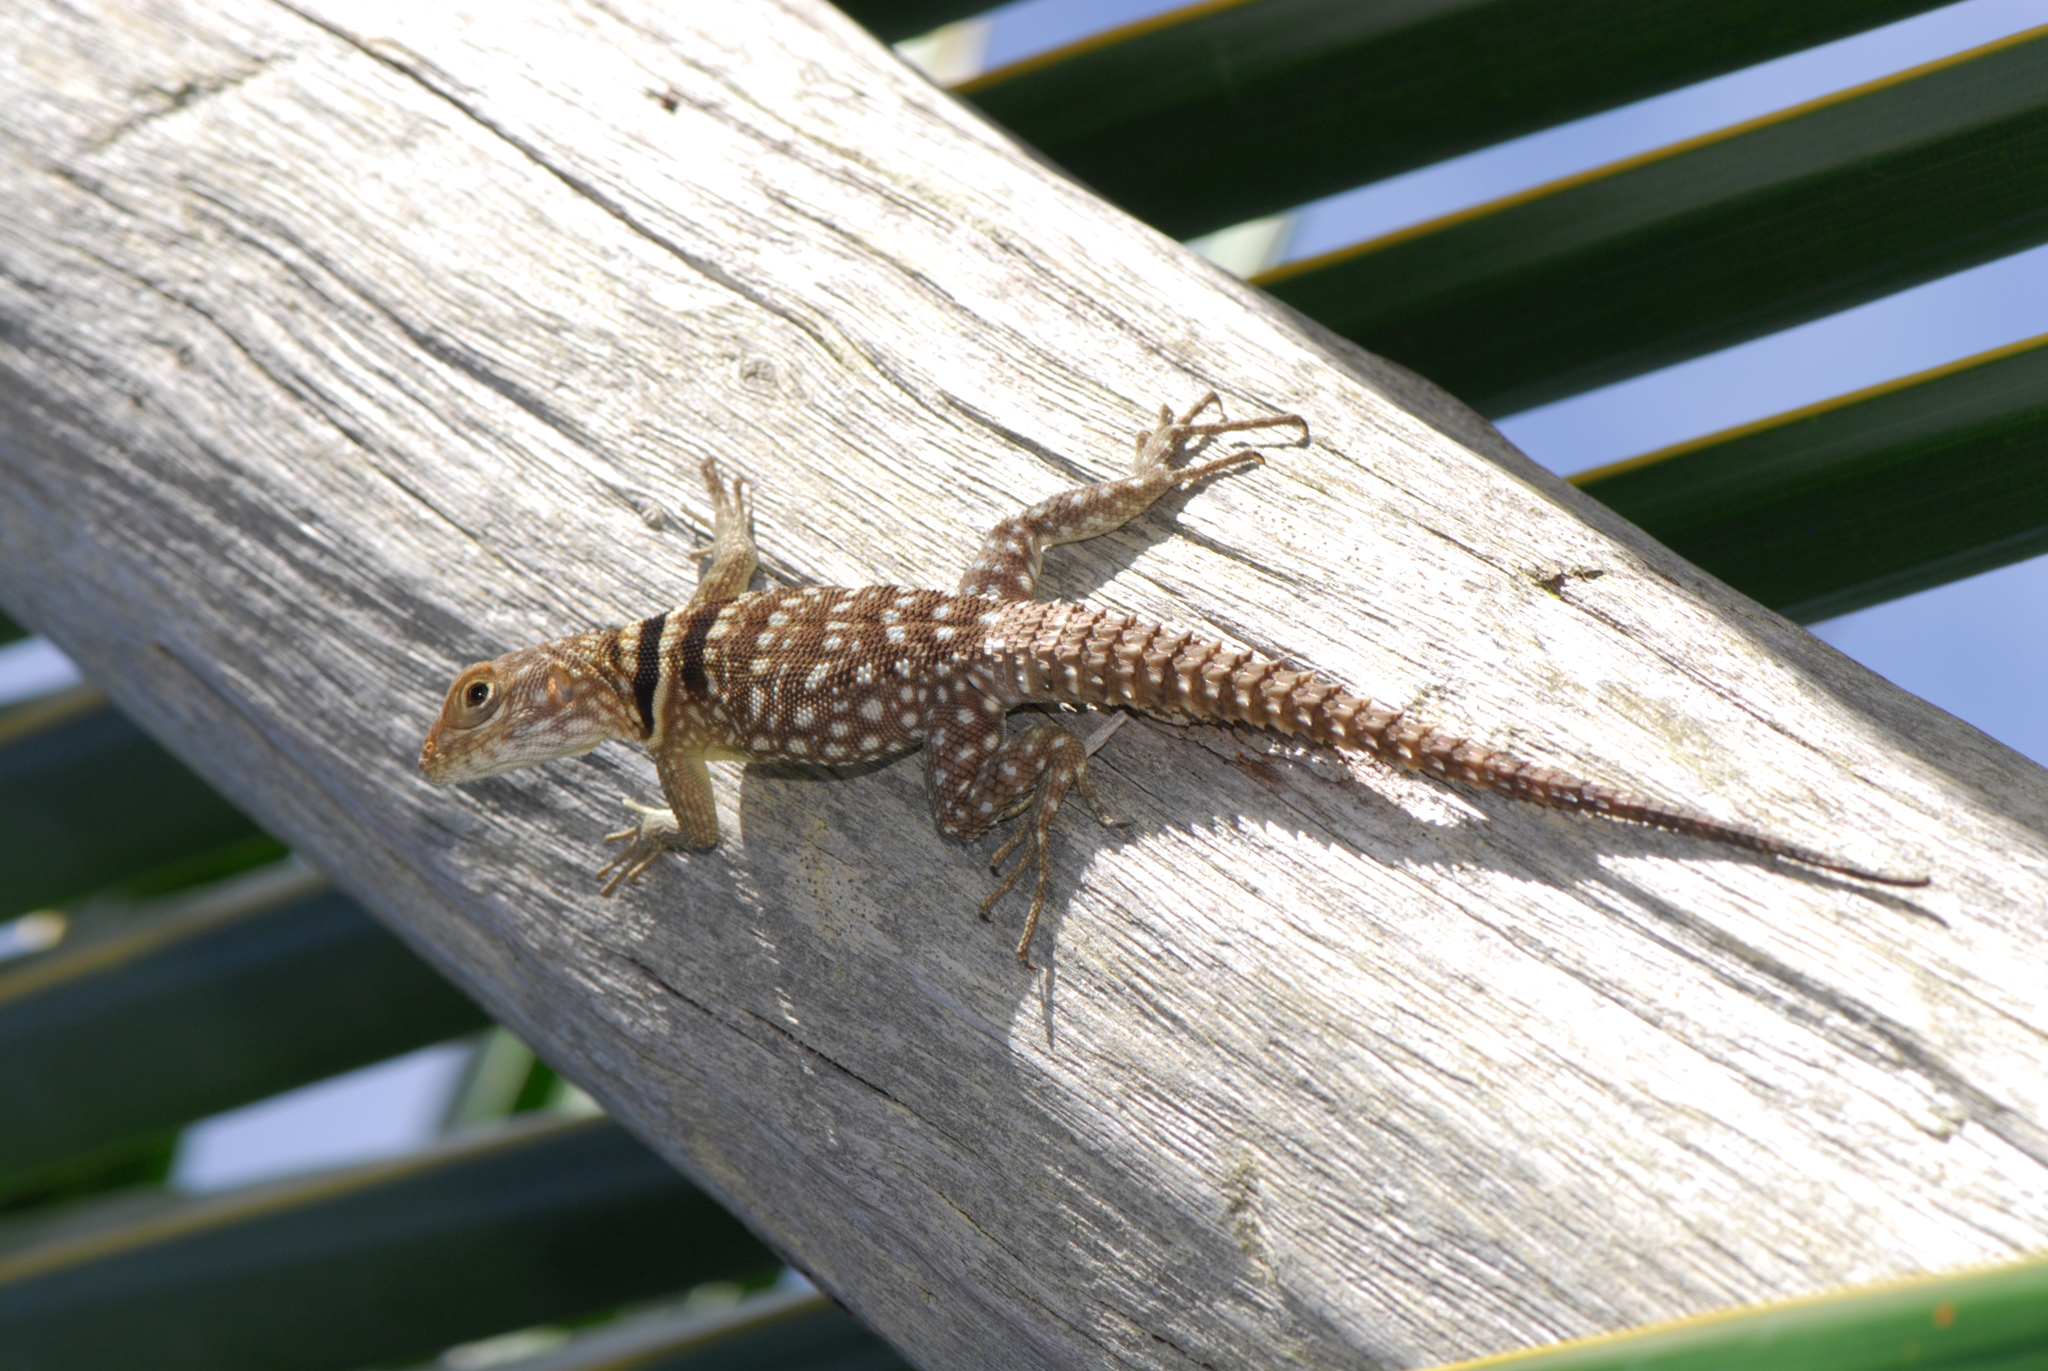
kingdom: Animalia
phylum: Chordata
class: Squamata
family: Opluridae
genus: Oplurus
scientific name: Oplurus cuvieri
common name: Cuvier's madagascar swift
